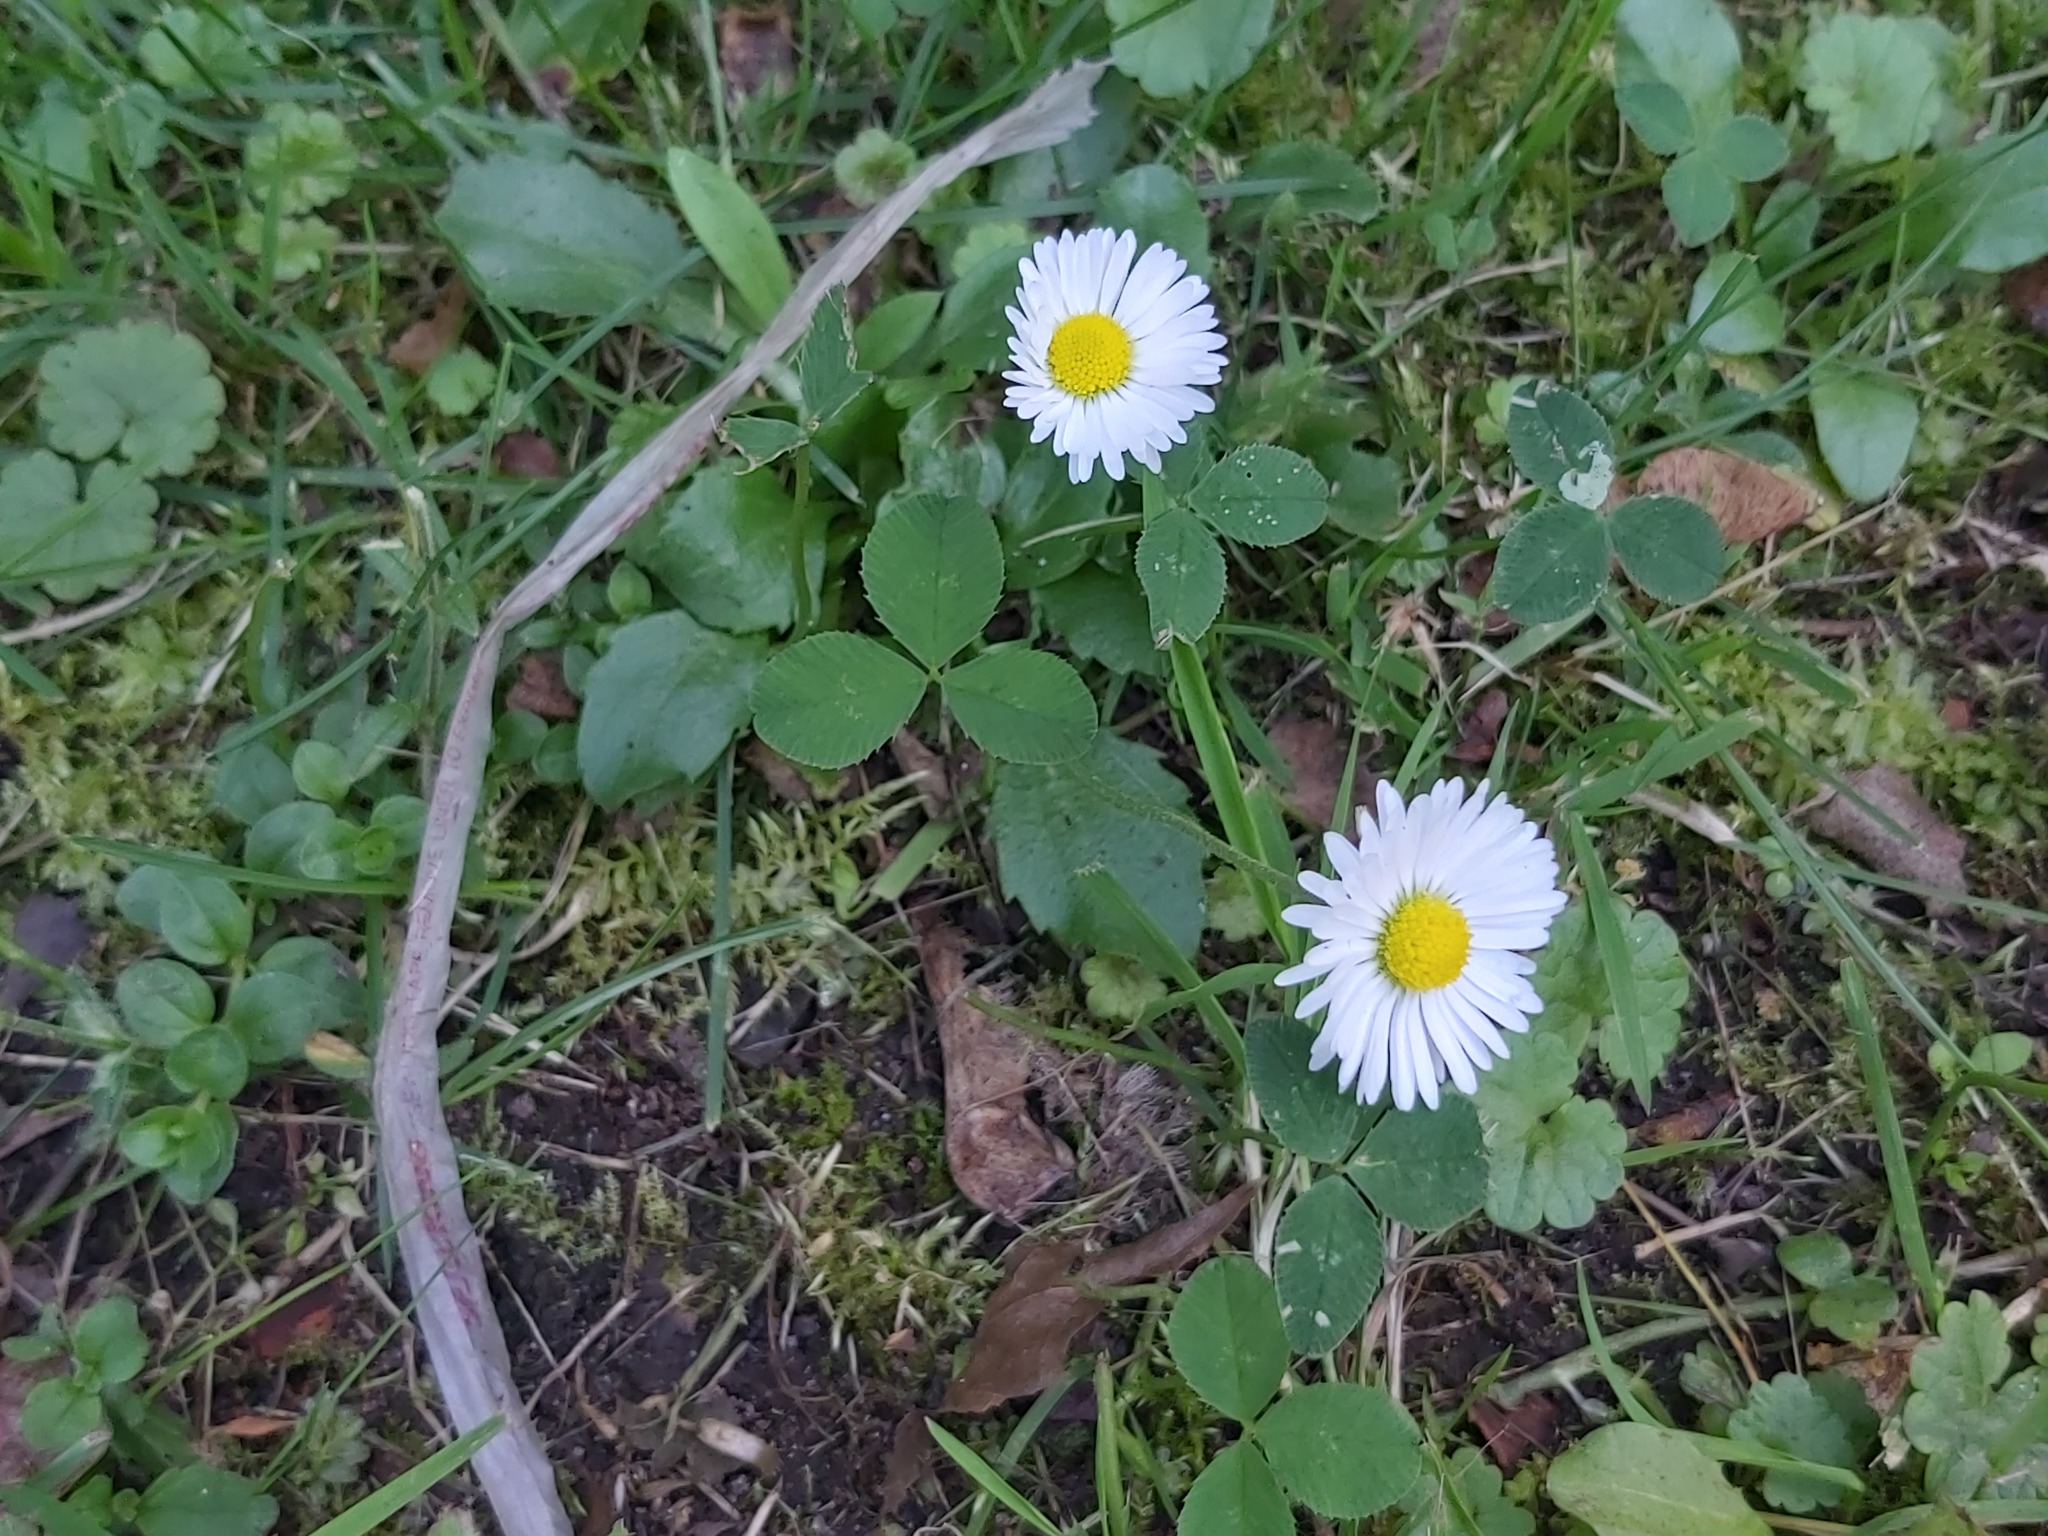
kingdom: Plantae
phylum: Tracheophyta
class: Magnoliopsida
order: Asterales
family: Asteraceae
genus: Bellis
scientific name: Bellis perennis
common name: Lawndaisy
